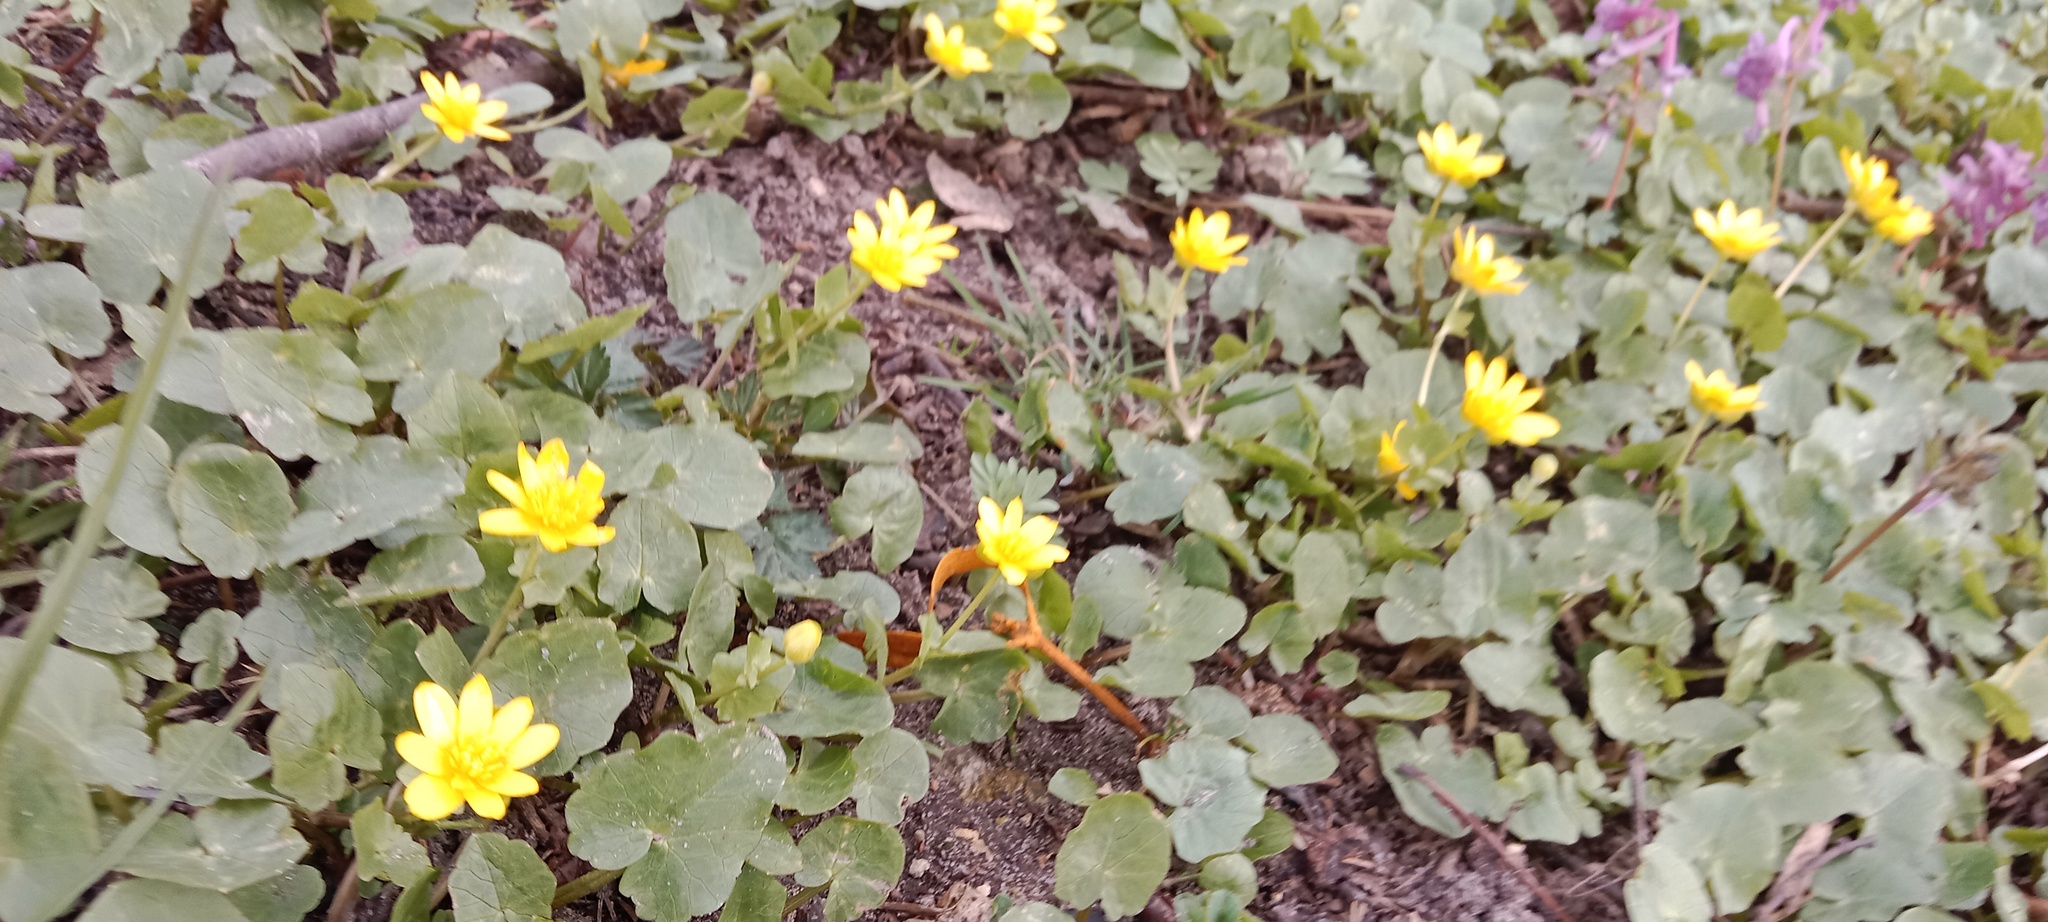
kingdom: Plantae
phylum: Tracheophyta
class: Magnoliopsida
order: Ranunculales
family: Ranunculaceae
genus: Ficaria
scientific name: Ficaria verna
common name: Lesser celandine
